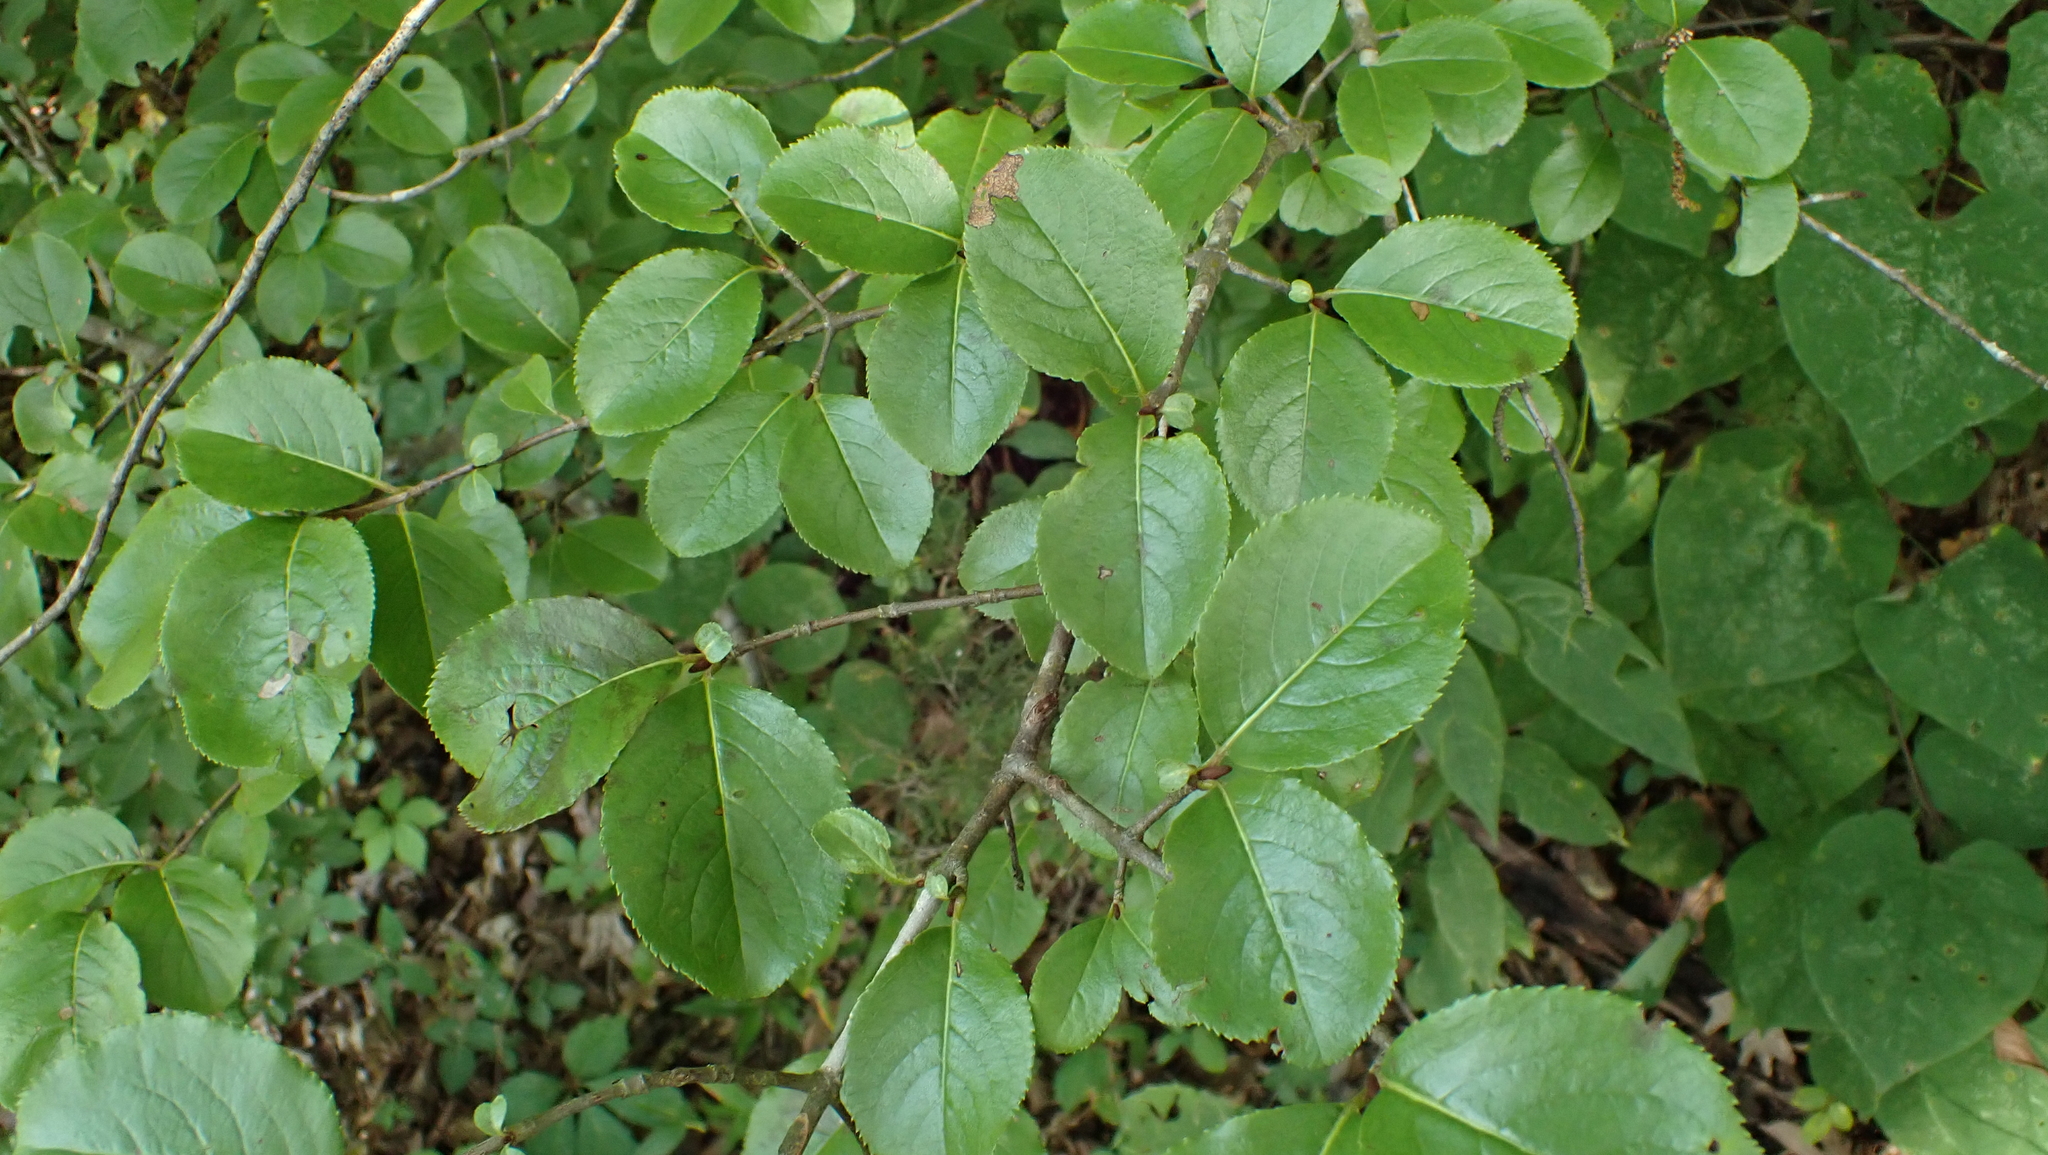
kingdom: Plantae
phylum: Tracheophyta
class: Magnoliopsida
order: Dipsacales
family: Viburnaceae
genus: Viburnum
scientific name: Viburnum rufidulum
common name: Blue haw
